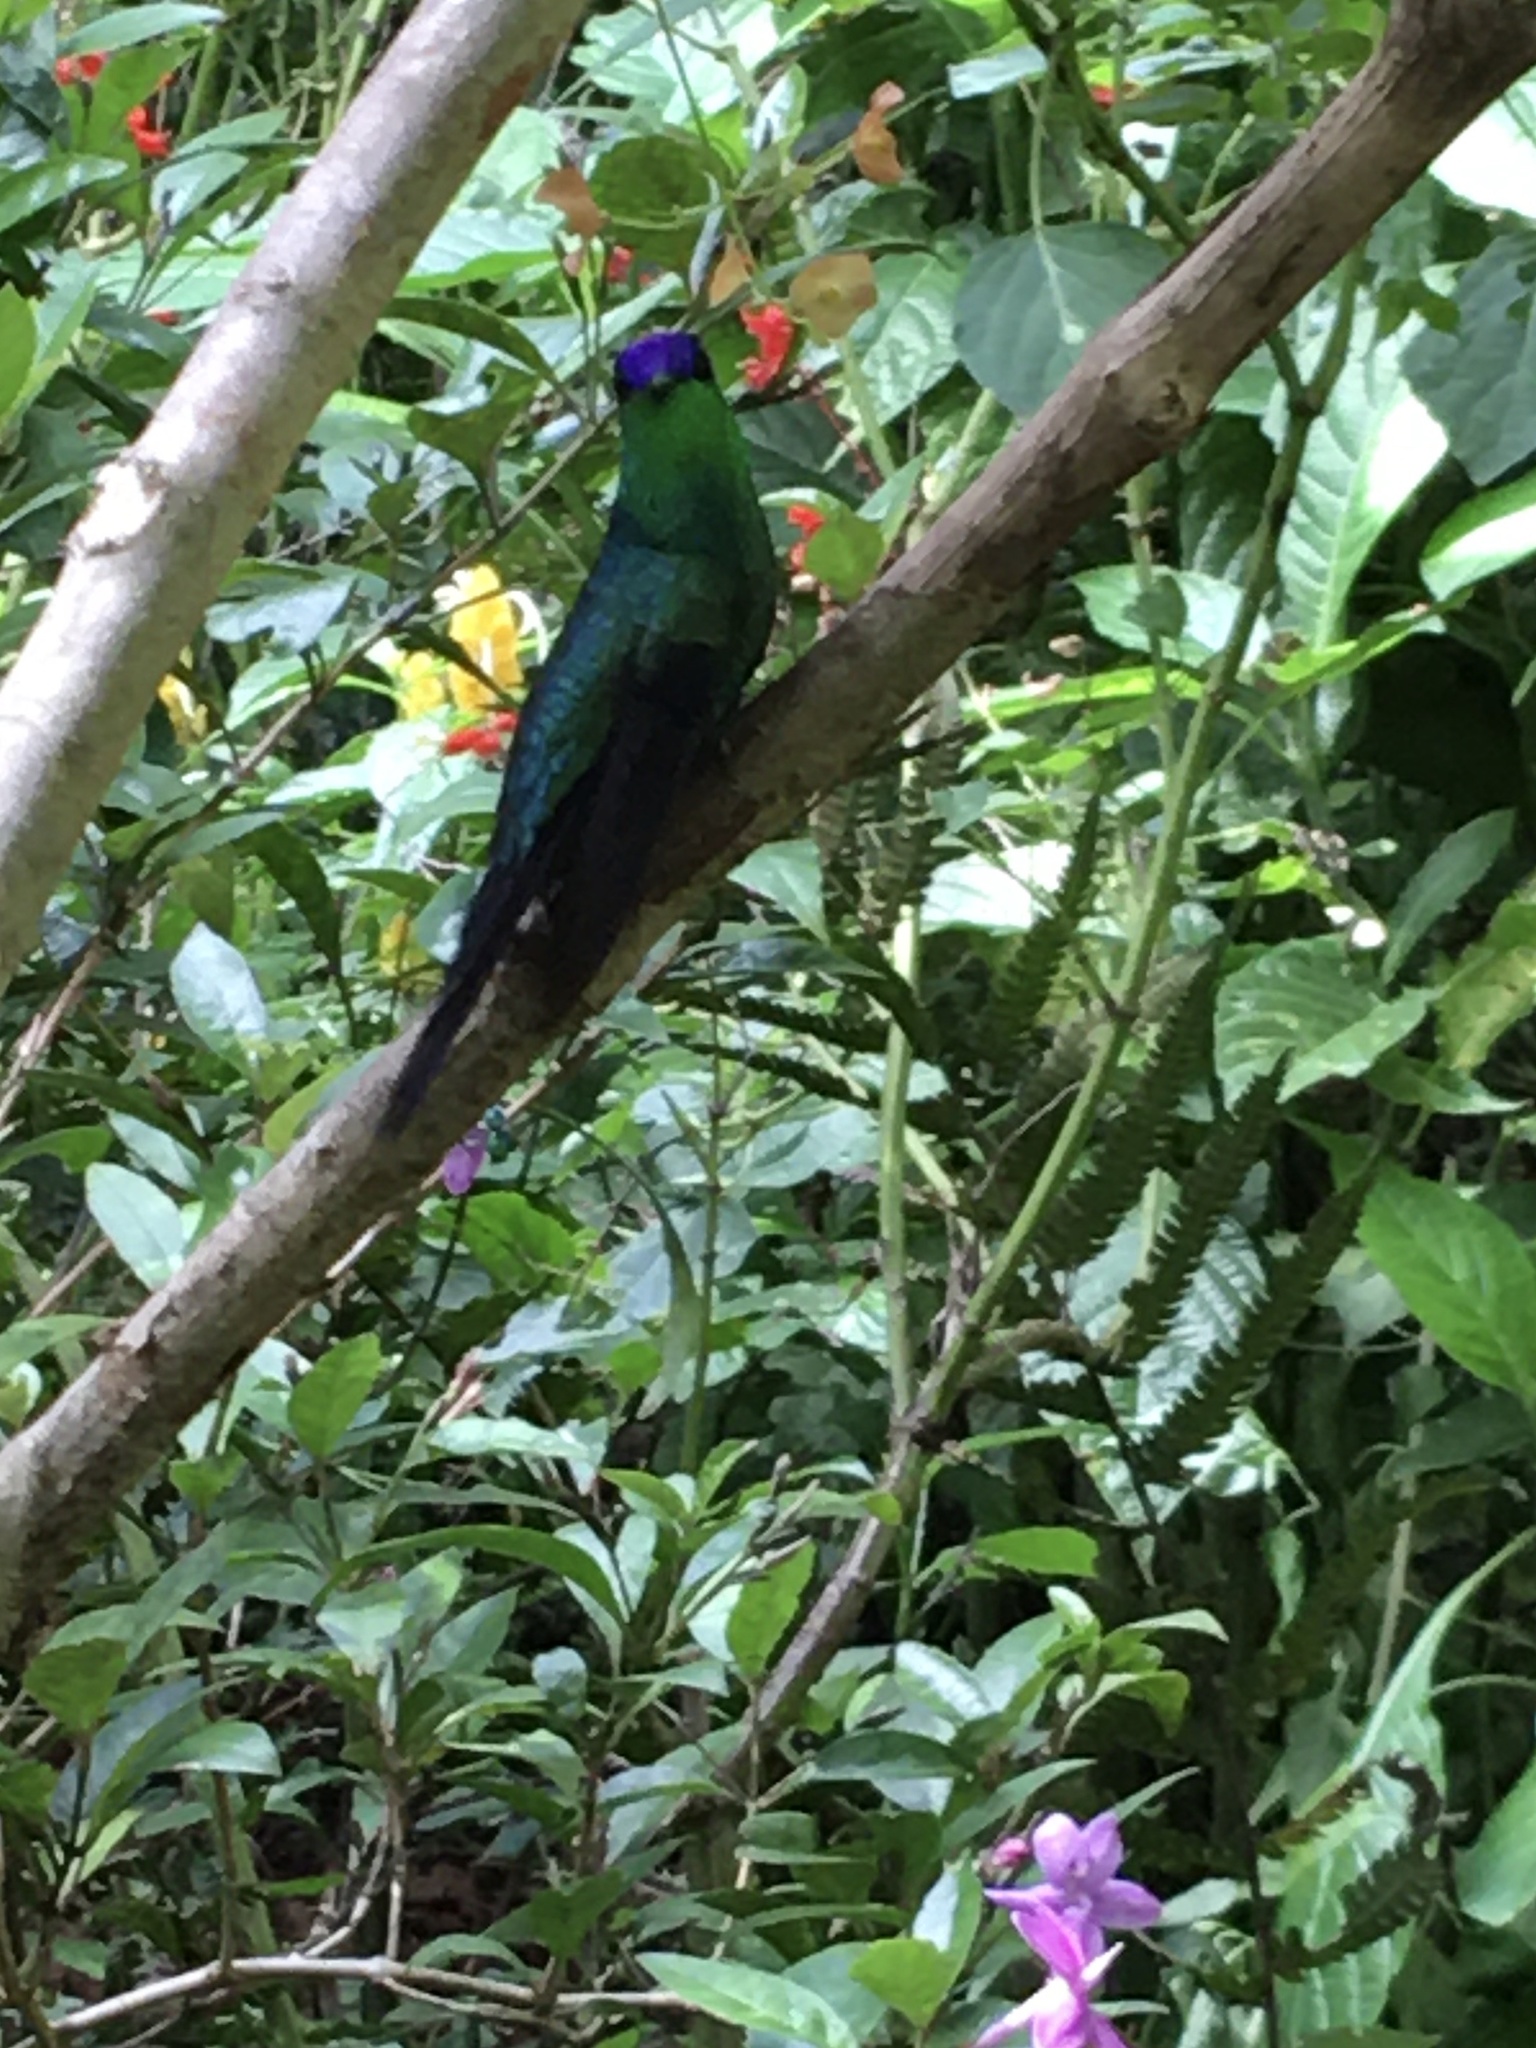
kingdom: Animalia
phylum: Chordata
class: Aves
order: Apodiformes
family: Trochilidae
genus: Thalurania
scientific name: Thalurania glaucopis
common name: Violet-capped woodnymph
